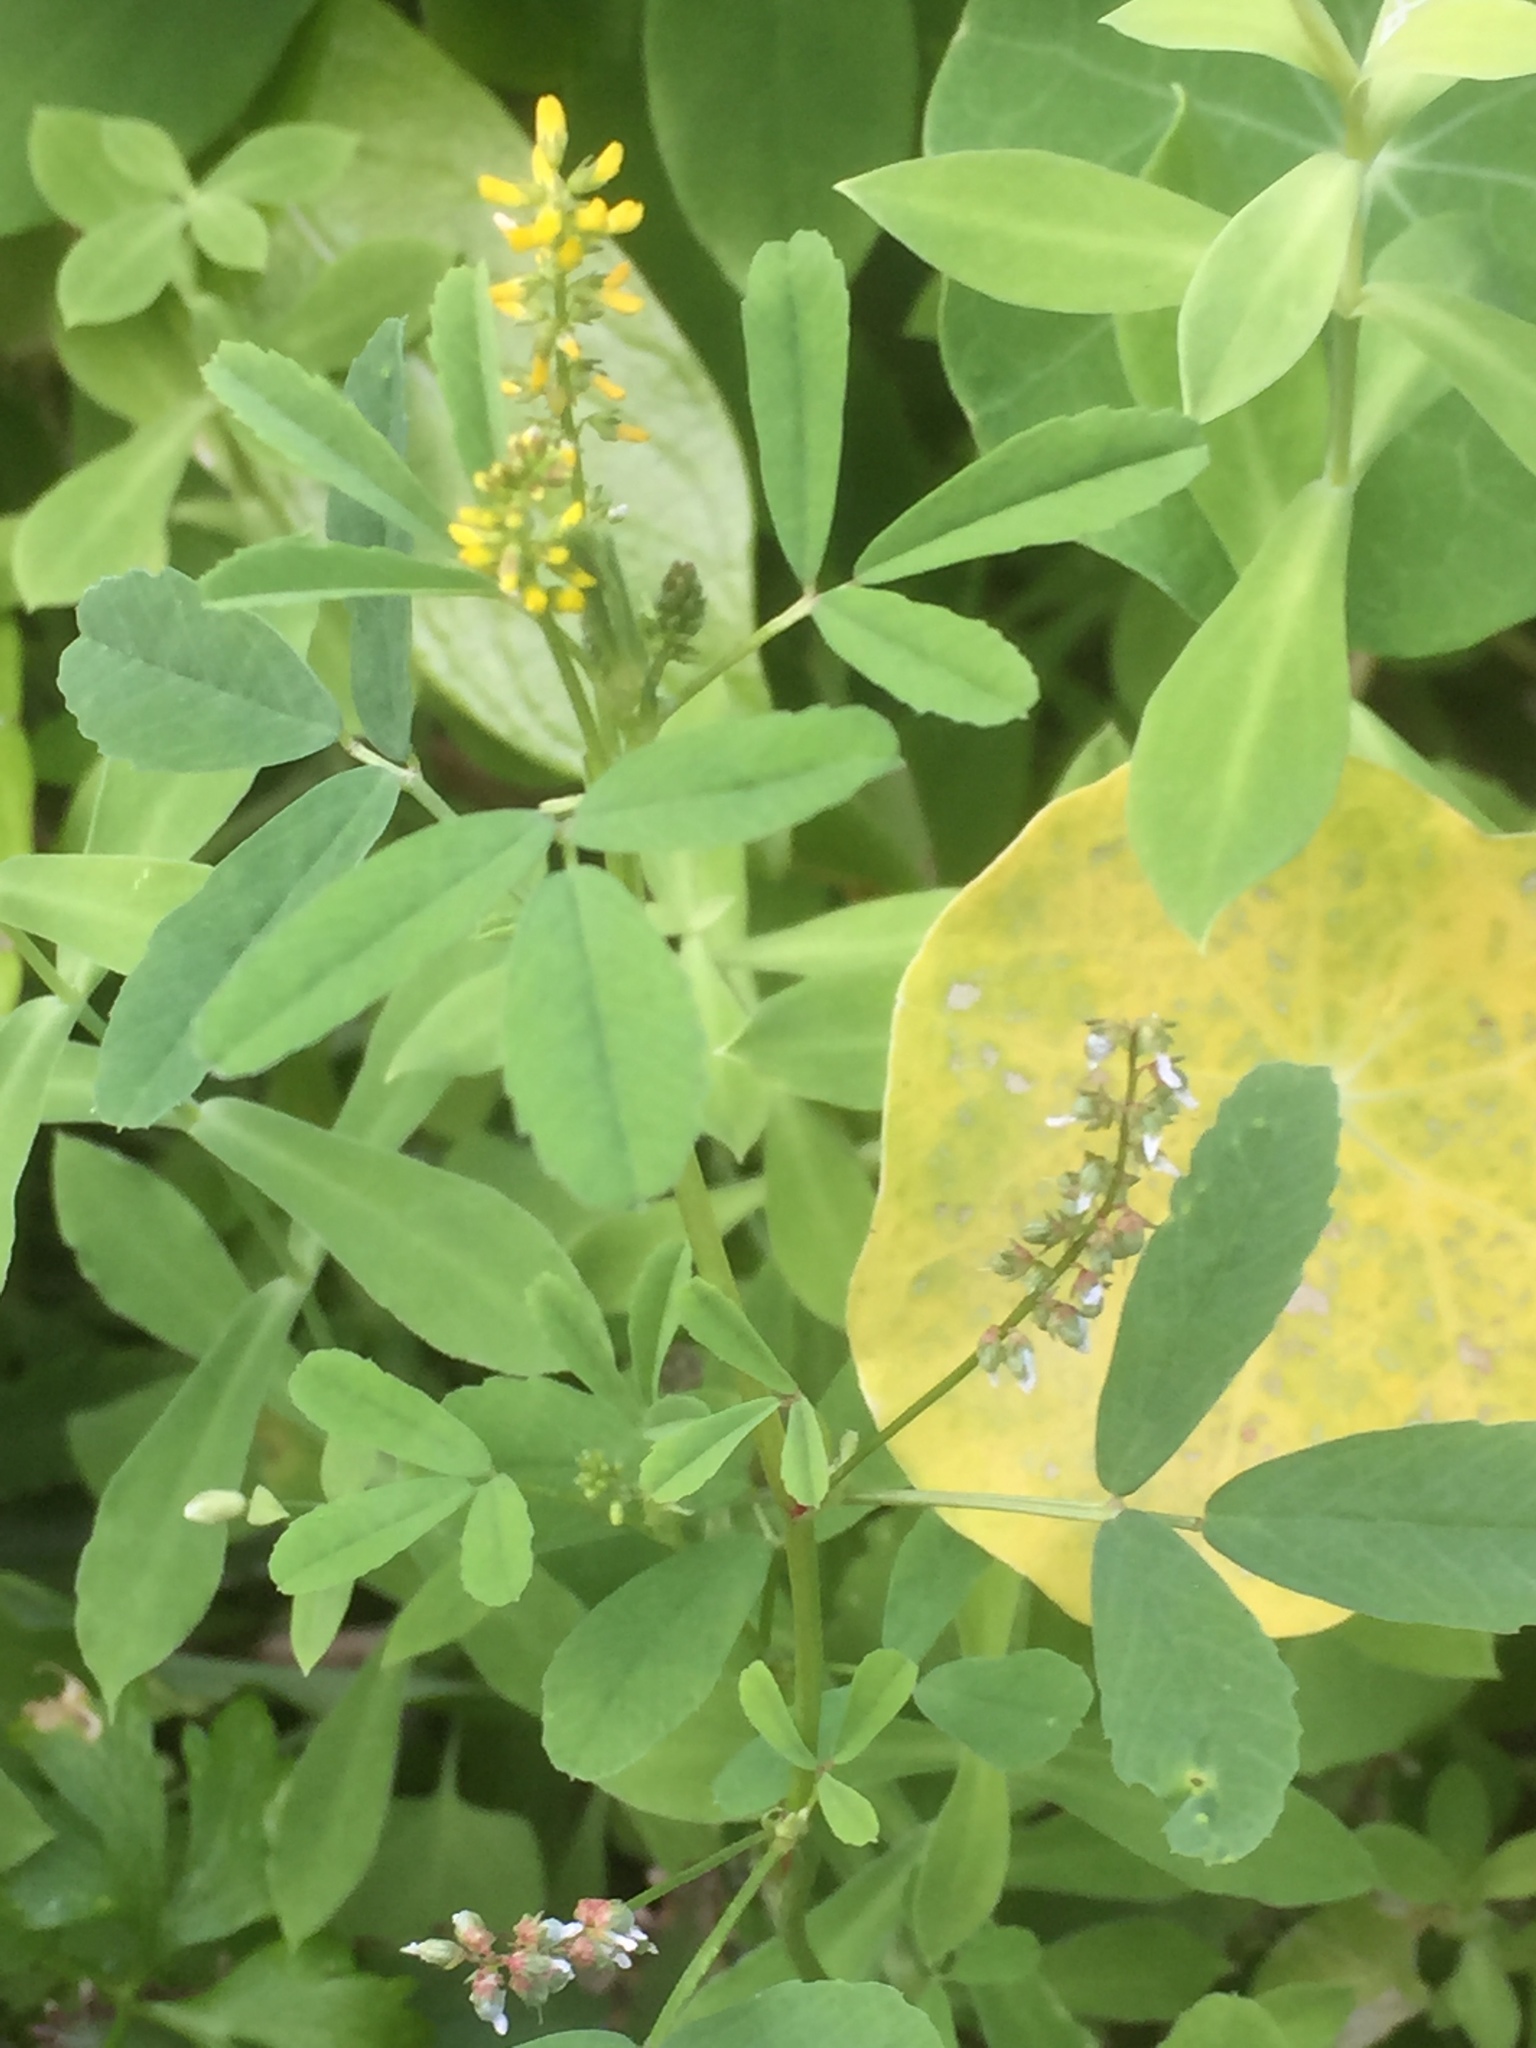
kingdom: Plantae
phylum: Tracheophyta
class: Magnoliopsida
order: Fabales
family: Fabaceae
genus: Melilotus
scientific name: Melilotus indicus
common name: Small melilot
